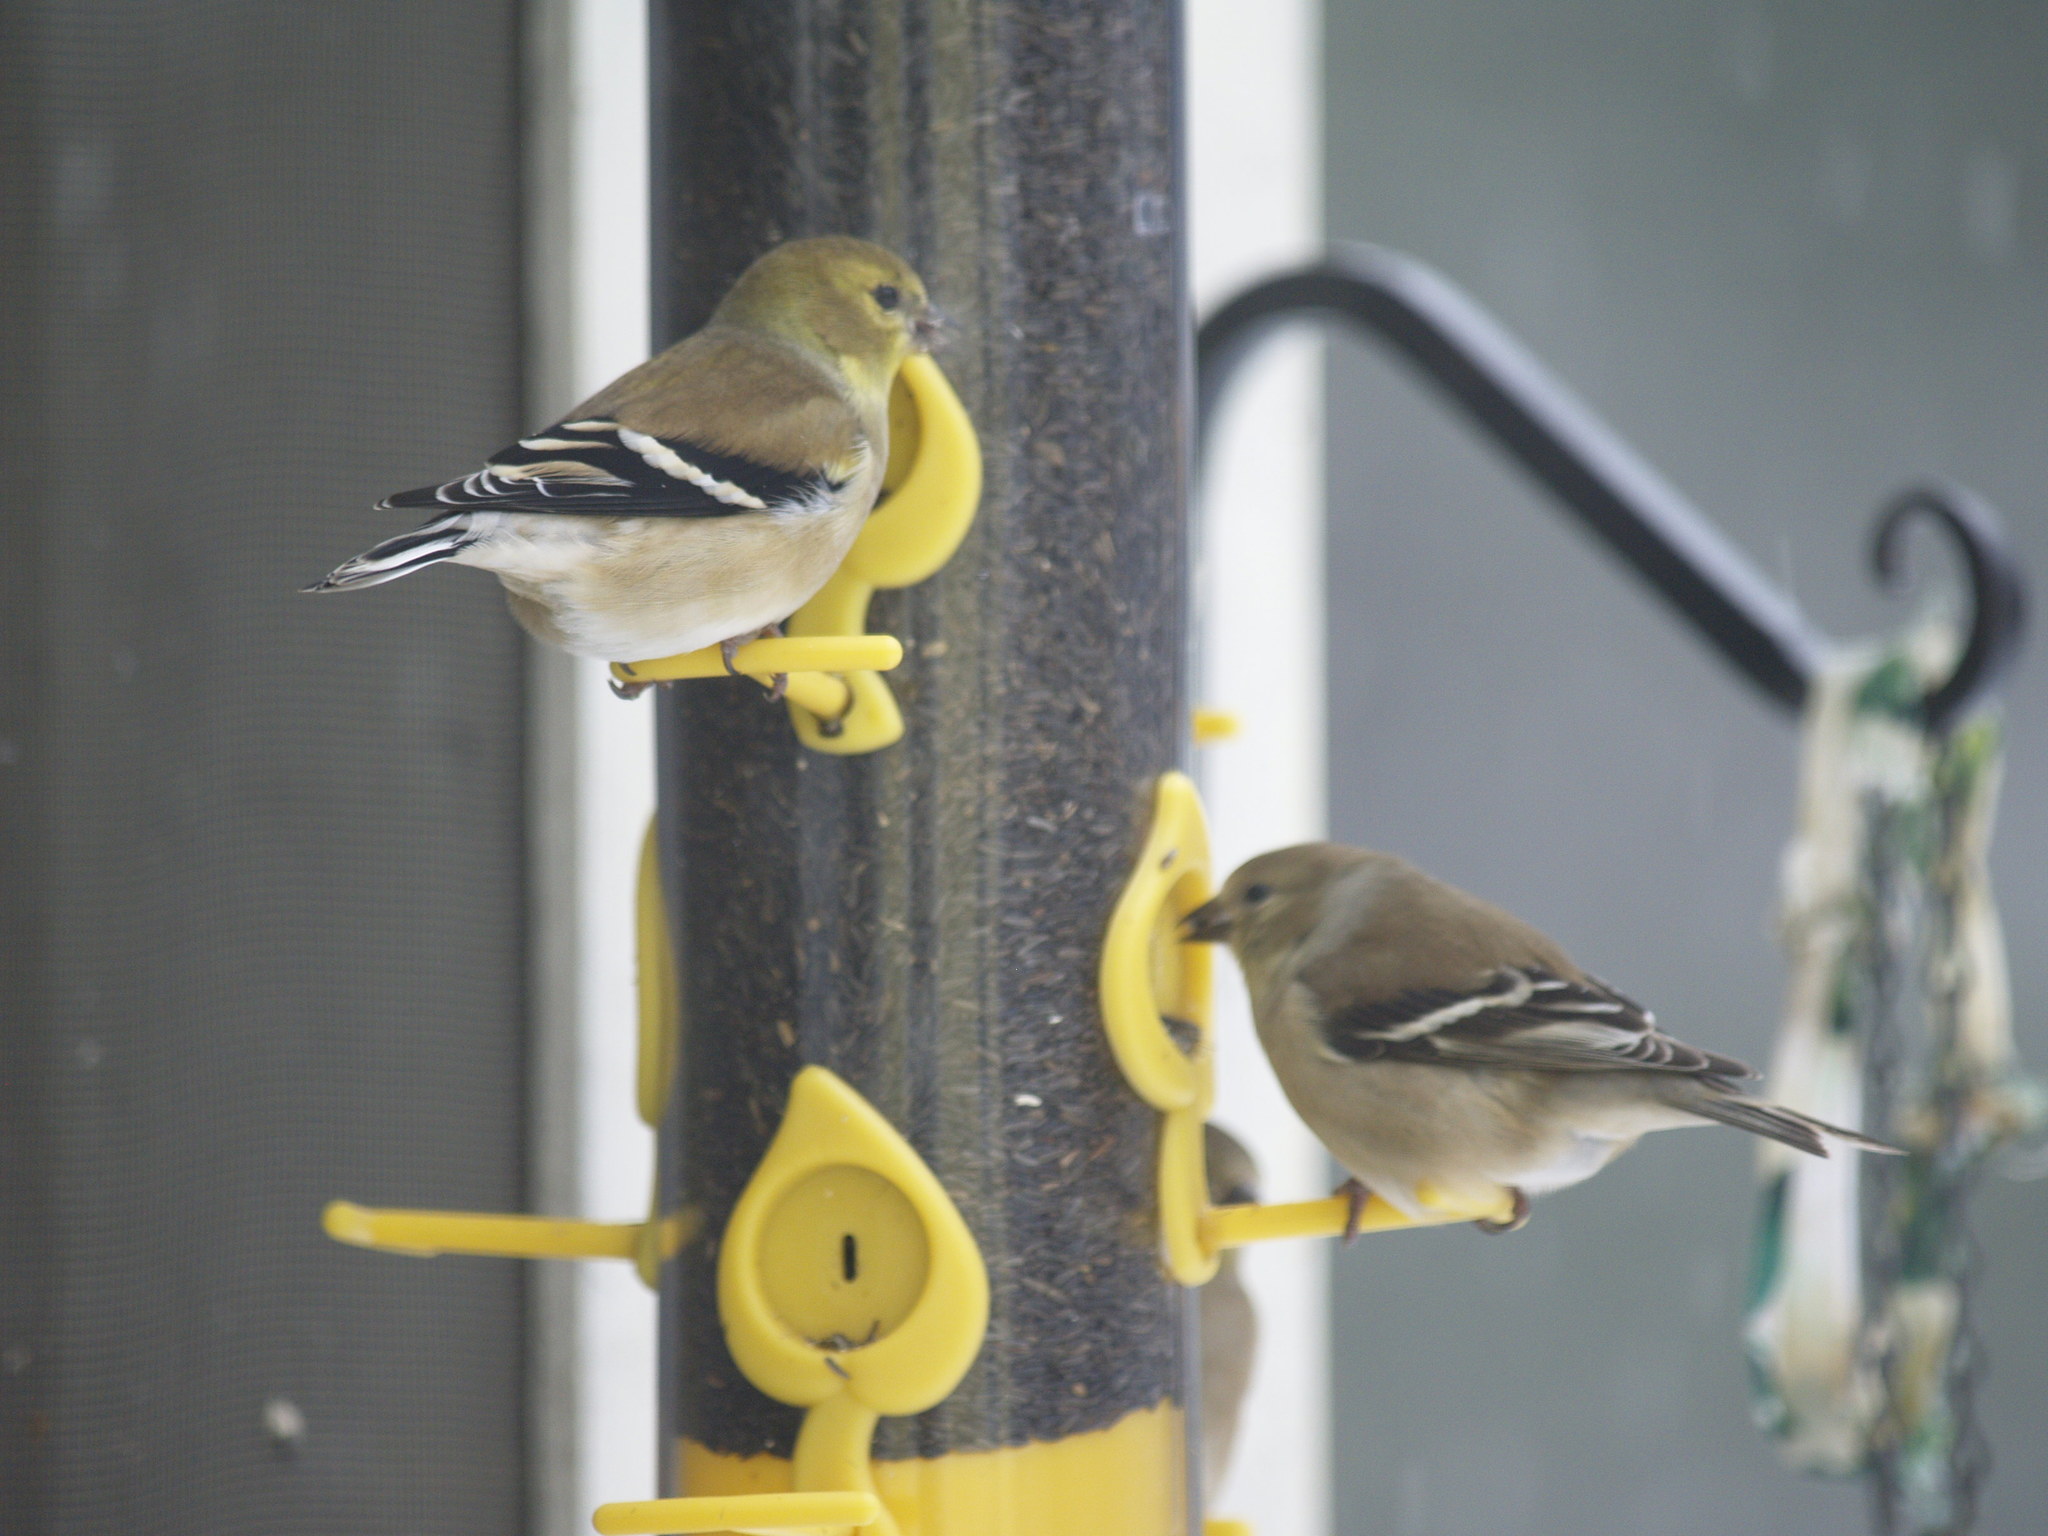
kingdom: Animalia
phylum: Chordata
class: Aves
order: Passeriformes
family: Fringillidae
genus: Spinus
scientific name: Spinus tristis
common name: American goldfinch
